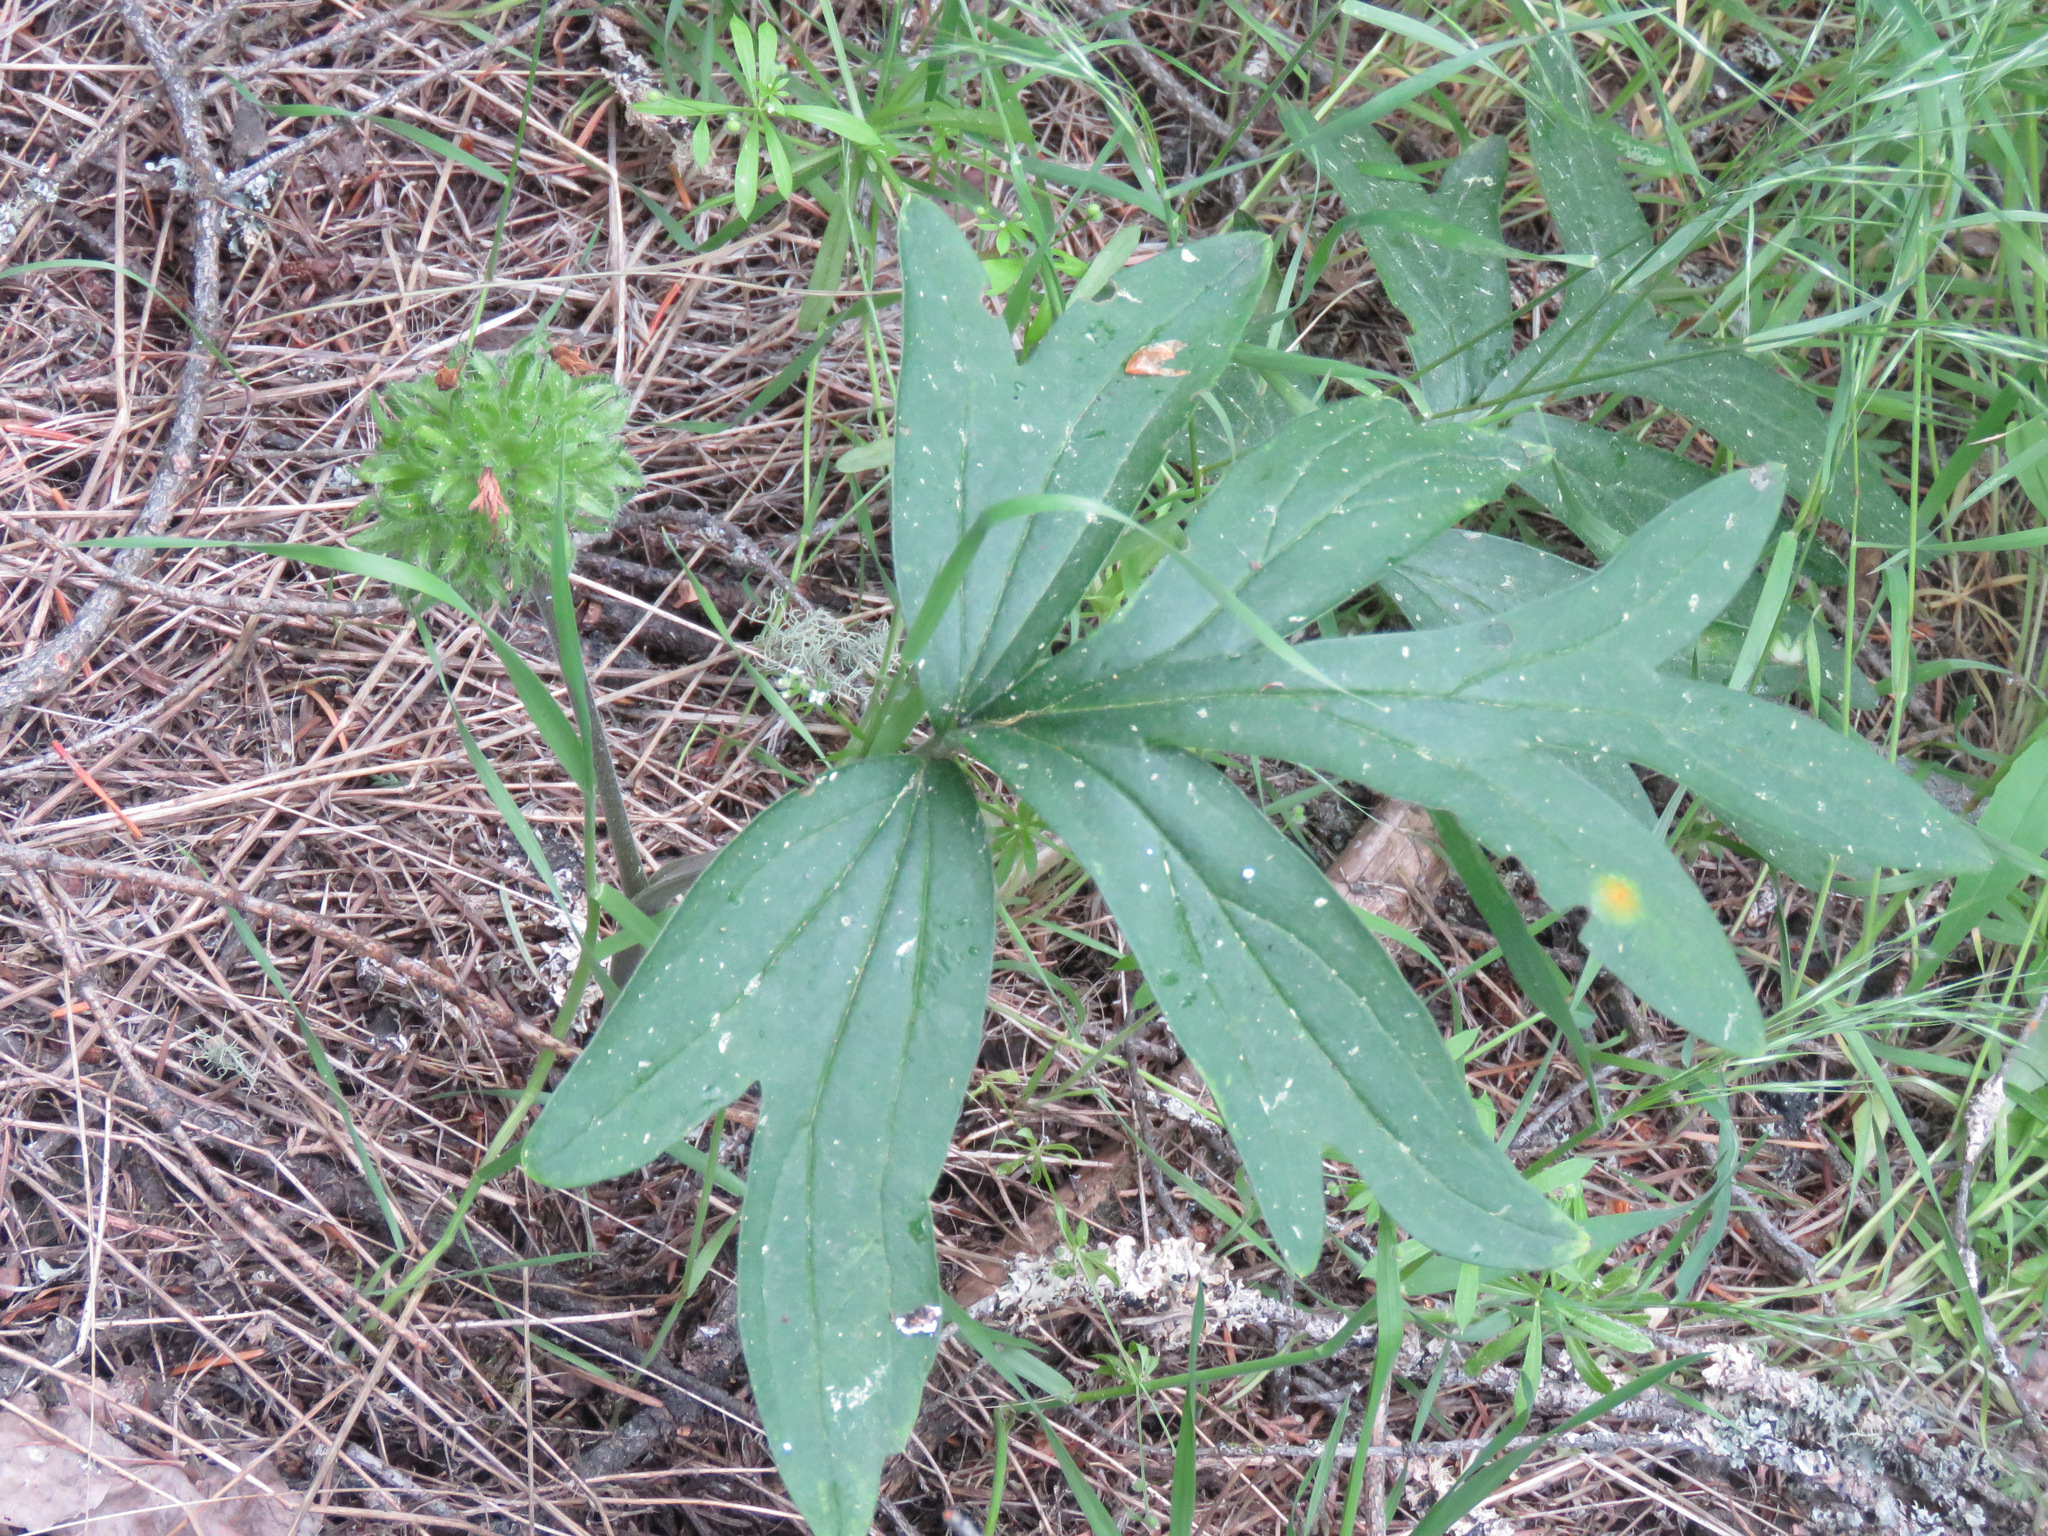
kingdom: Plantae
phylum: Tracheophyta
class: Magnoliopsida
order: Boraginales
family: Hydrophyllaceae
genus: Hydrophyllum
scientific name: Hydrophyllum capitatum
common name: Woollen-breeches
